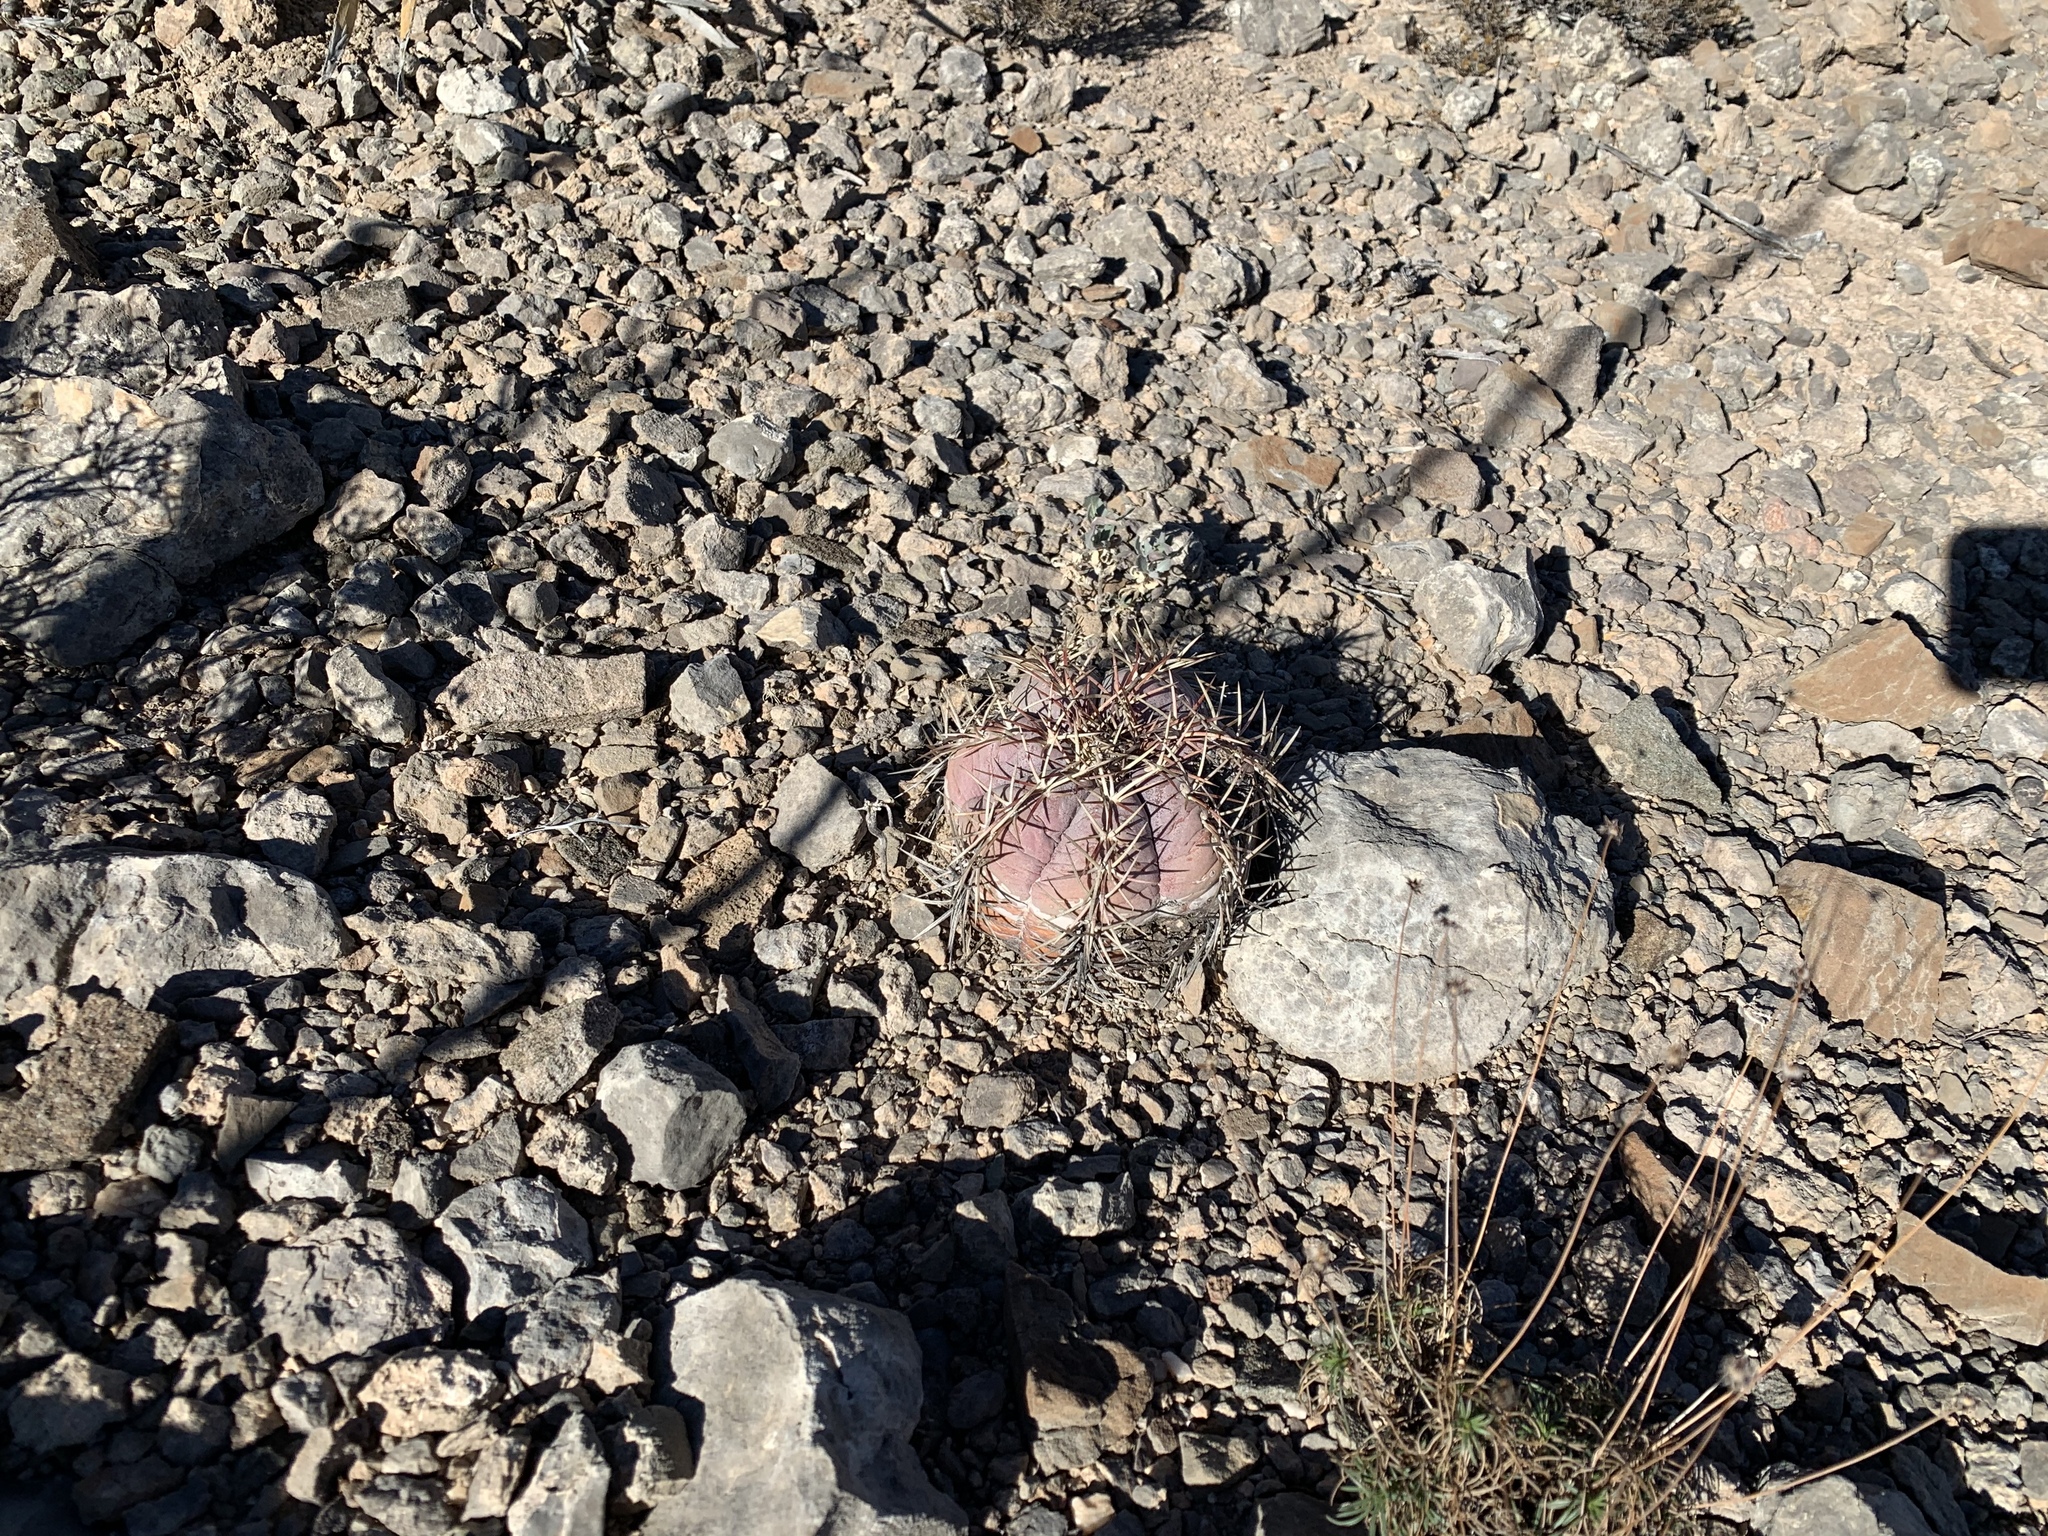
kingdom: Plantae
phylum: Tracheophyta
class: Magnoliopsida
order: Caryophyllales
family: Cactaceae
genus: Echinocactus
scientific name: Echinocactus horizonthalonius
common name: Devilshead
